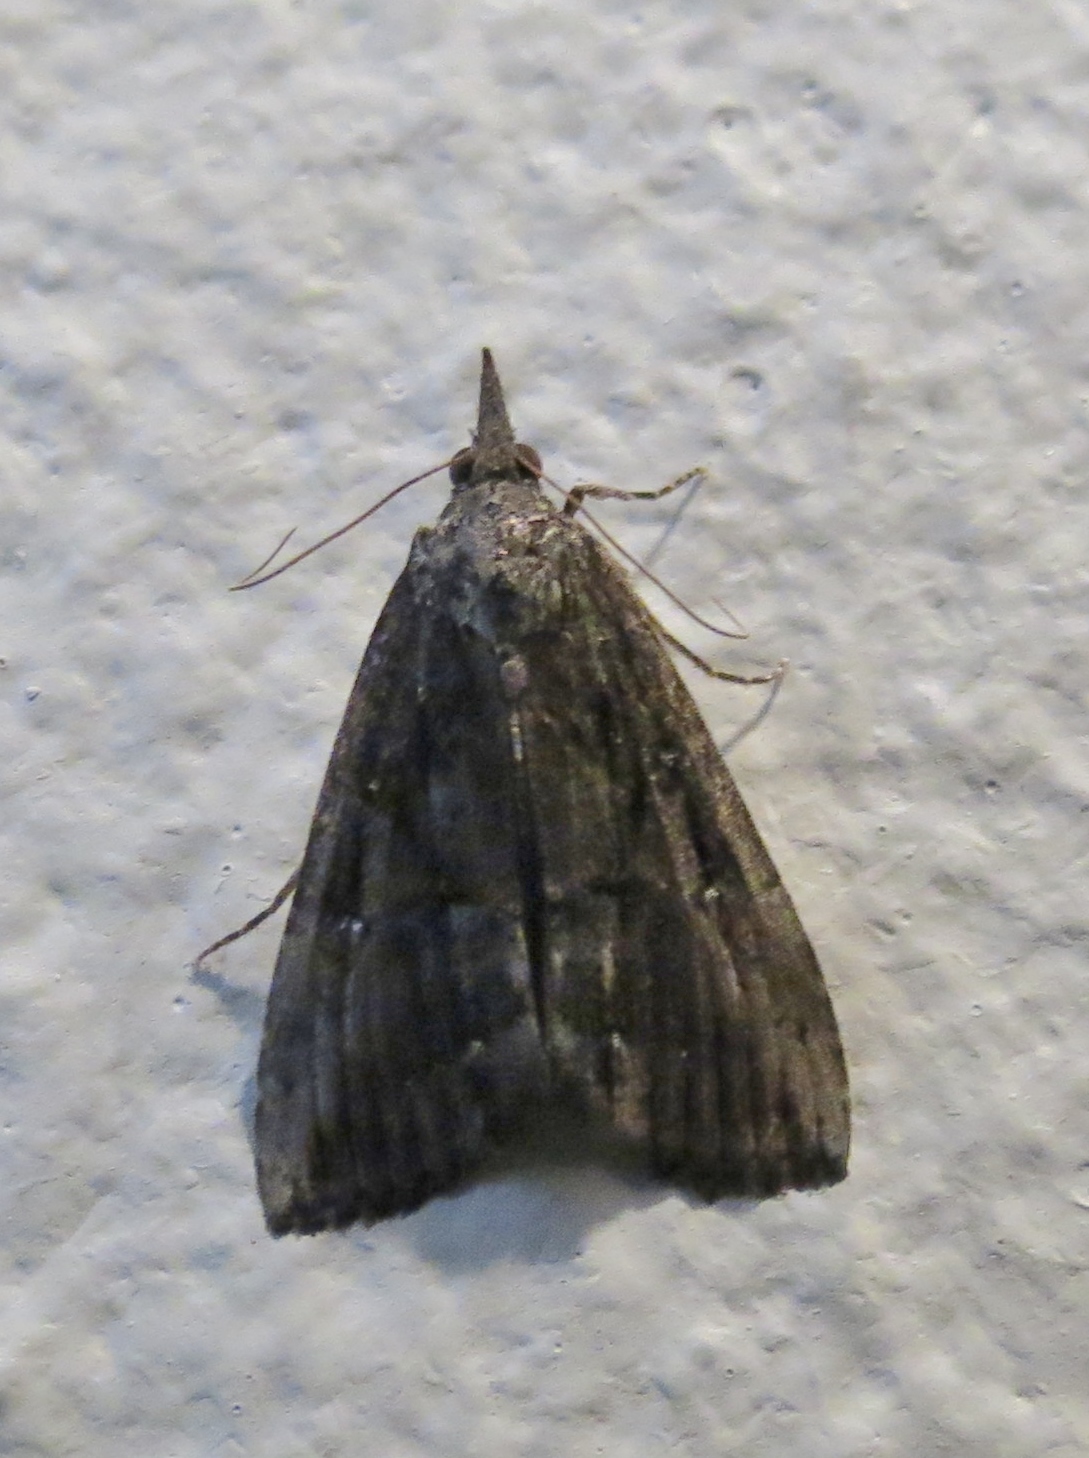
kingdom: Animalia
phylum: Arthropoda
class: Insecta
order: Lepidoptera
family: Erebidae
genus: Hypena
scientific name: Hypena scabra
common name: Green cloverworm
